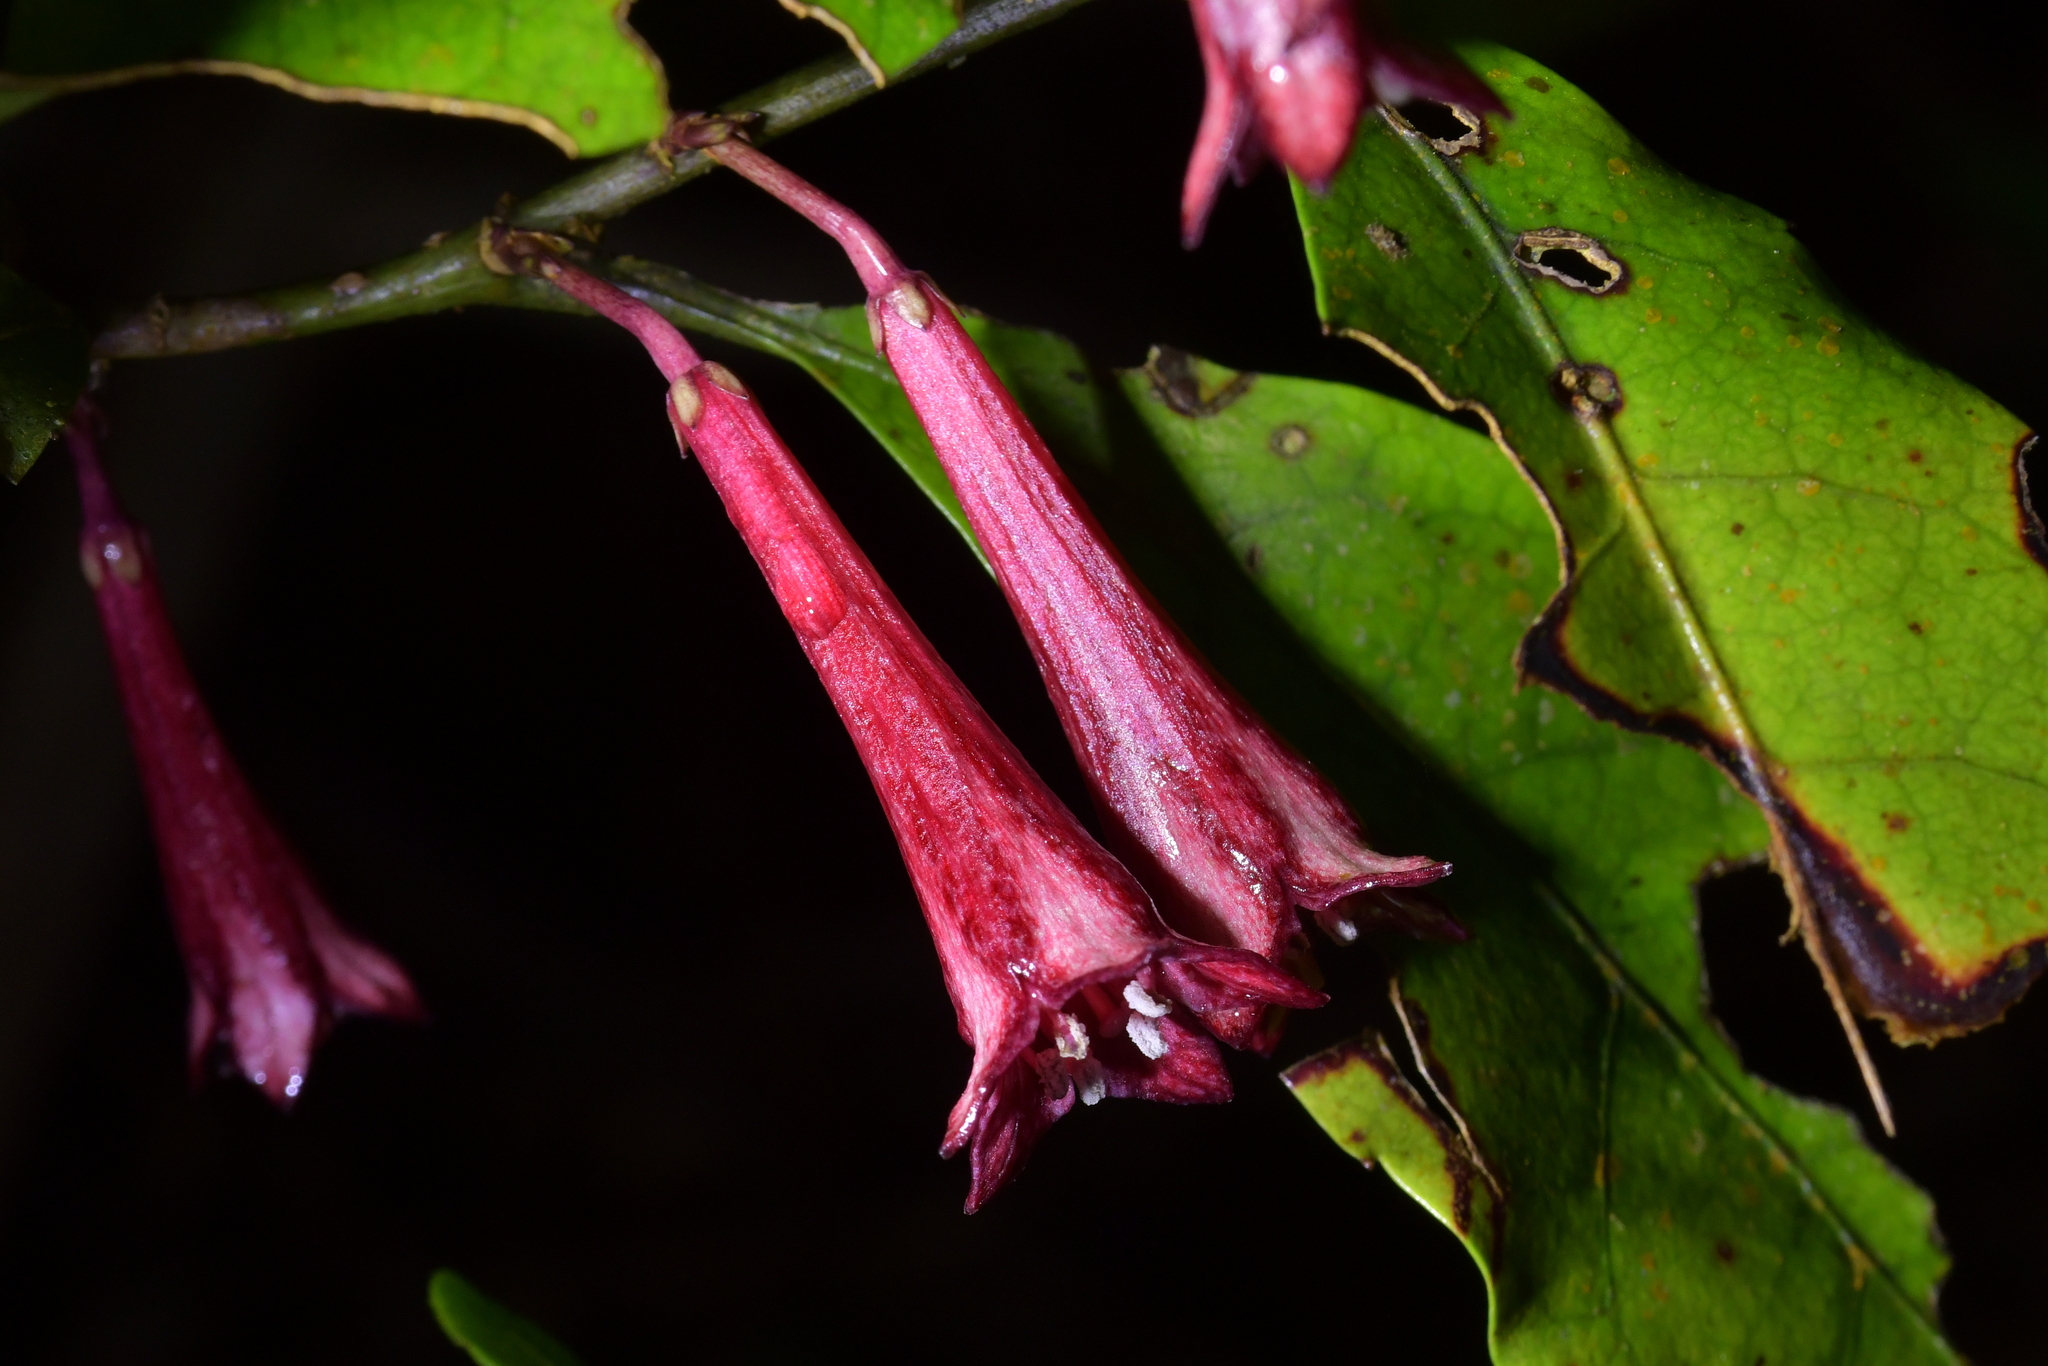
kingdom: Plantae
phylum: Tracheophyta
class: Magnoliopsida
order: Asterales
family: Alseuosmiaceae
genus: Alseuosmia
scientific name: Alseuosmia macrophylla
